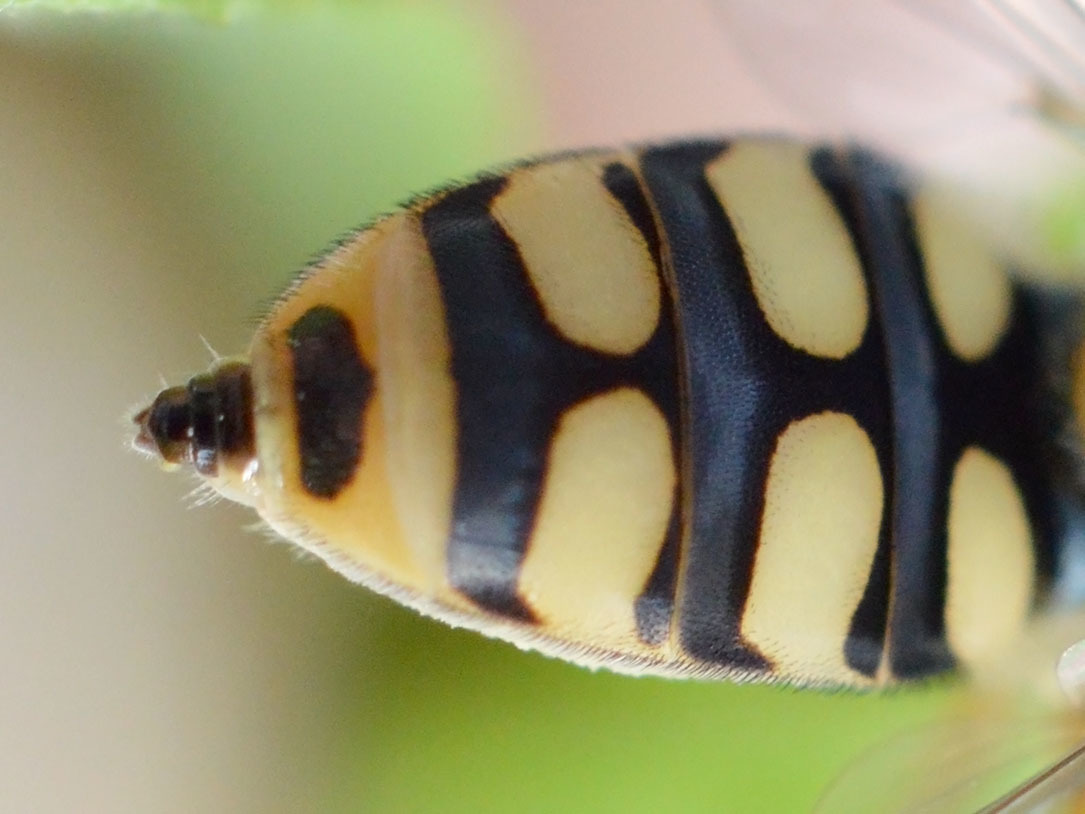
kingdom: Animalia
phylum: Arthropoda
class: Insecta
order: Diptera
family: Syrphidae
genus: Eupeodes
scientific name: Eupeodes corollae
